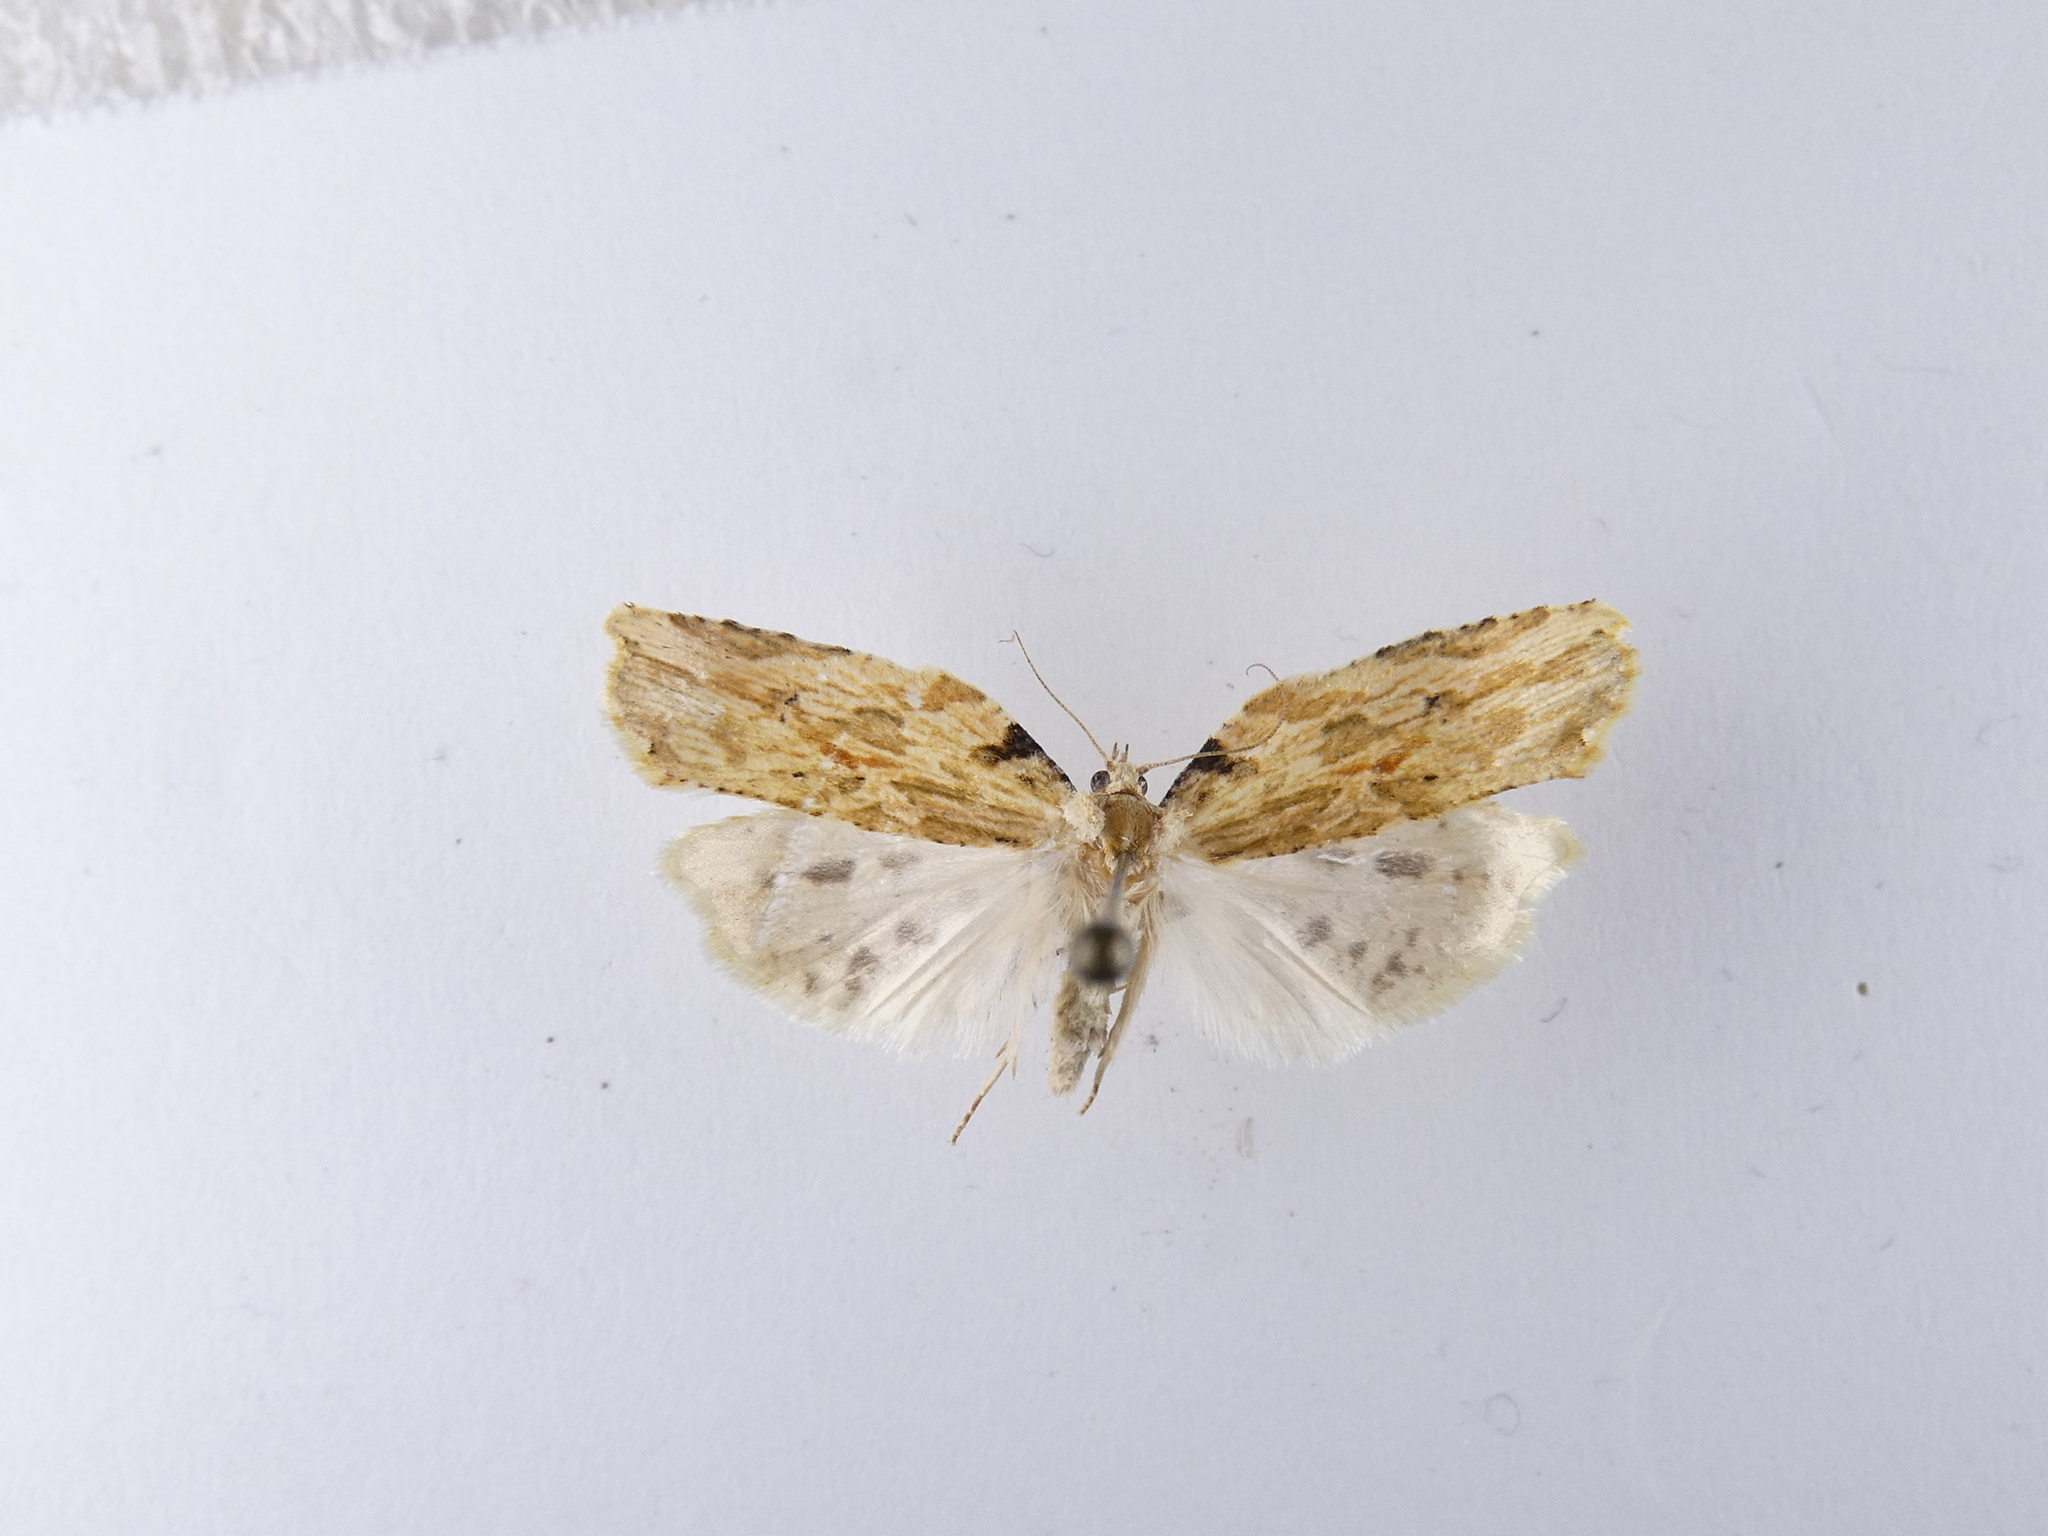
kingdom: Animalia
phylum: Arthropoda
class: Insecta
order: Lepidoptera
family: Tortricidae
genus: Epalxiphora
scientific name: Epalxiphora axenana
